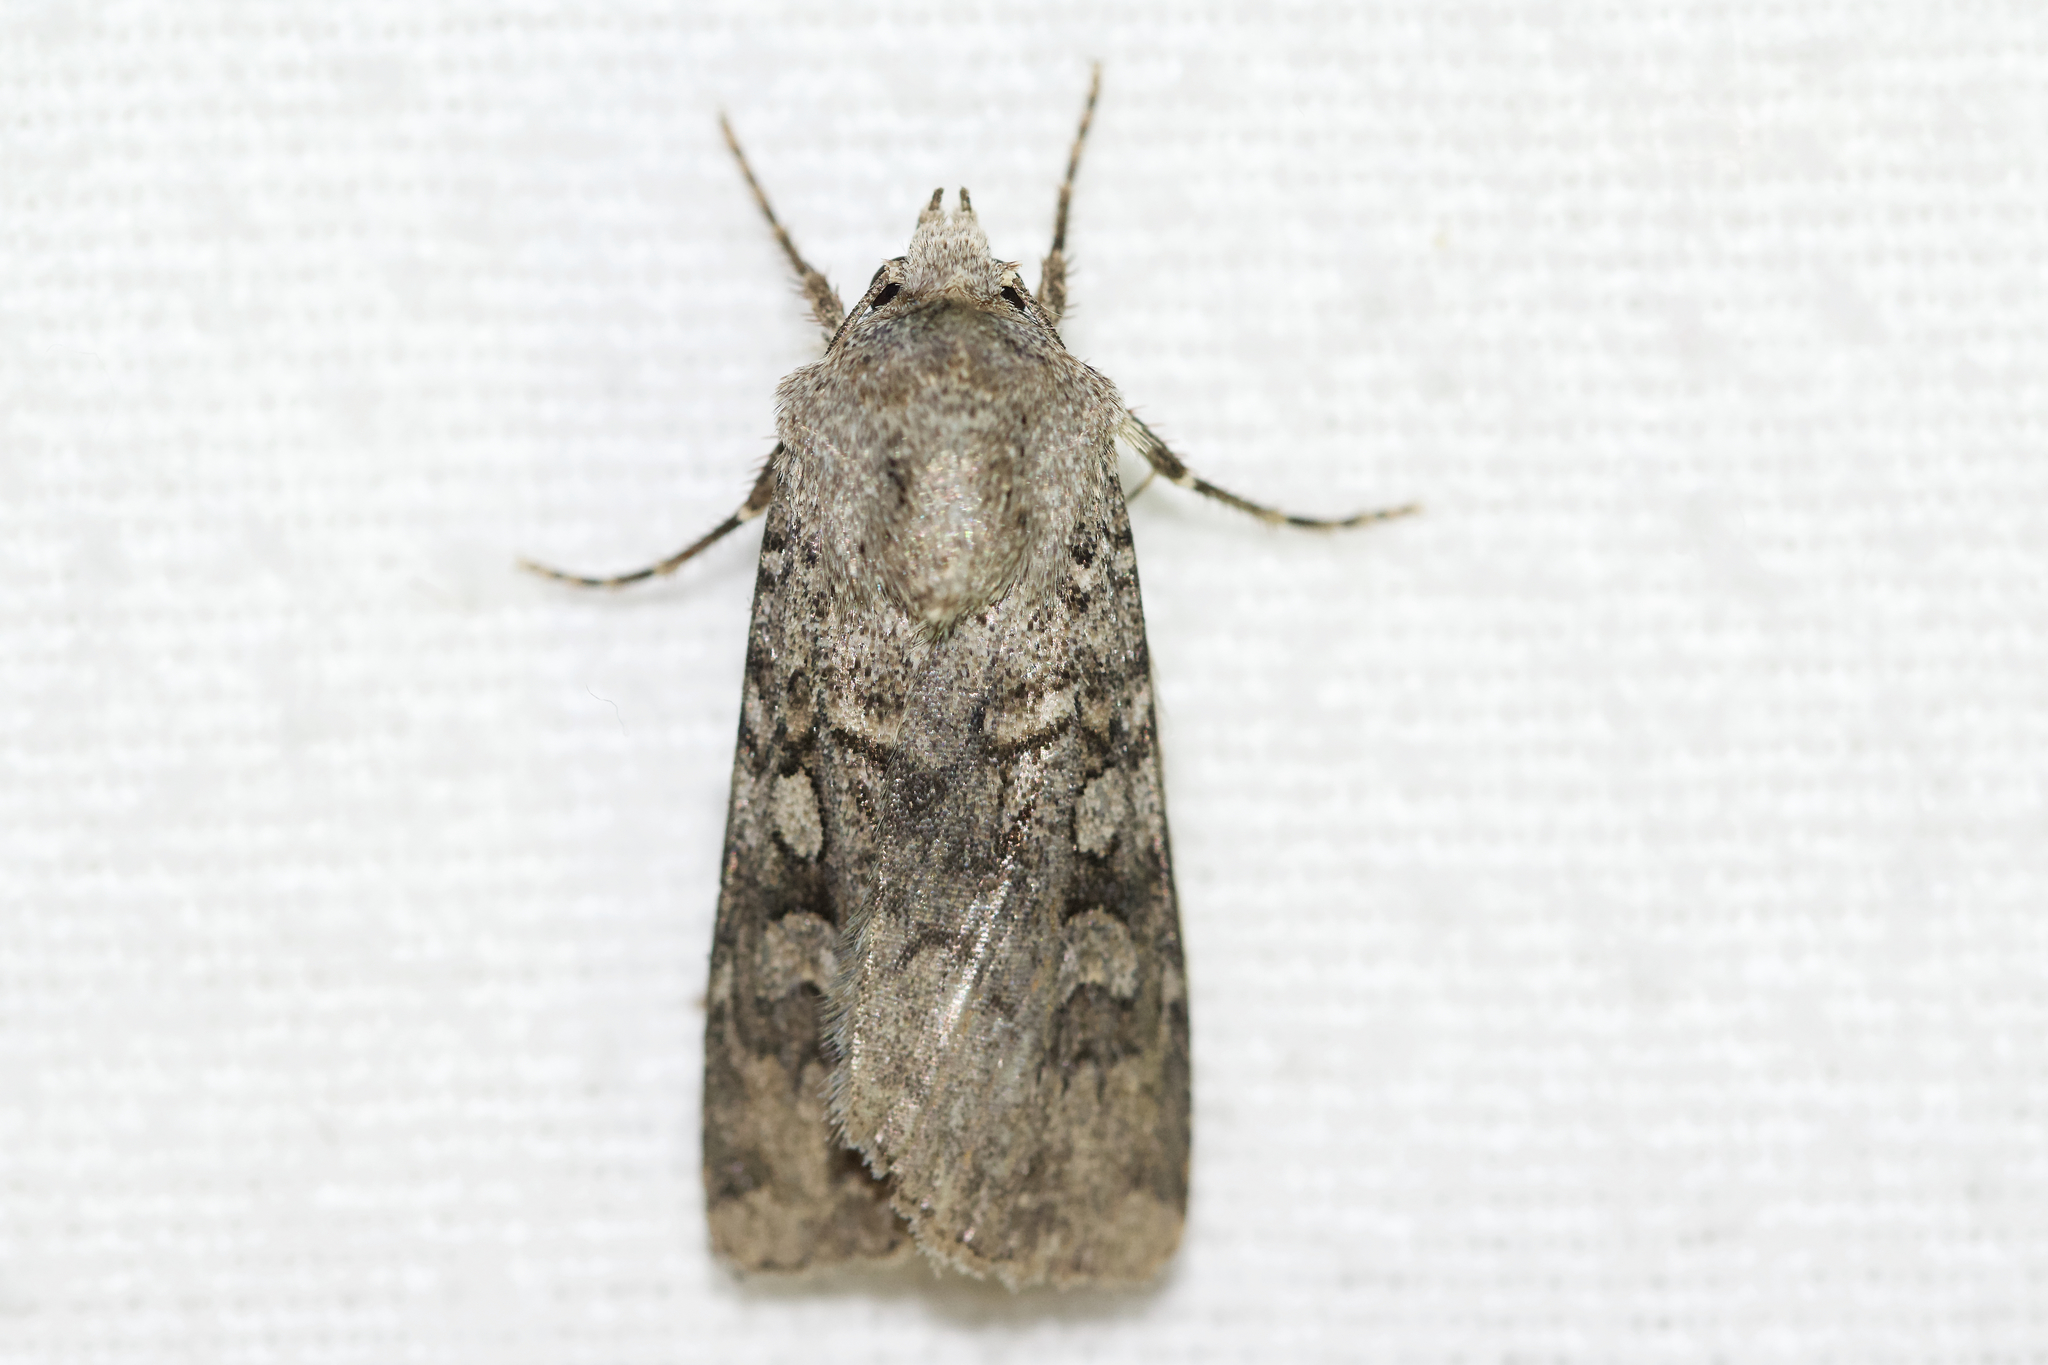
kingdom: Animalia
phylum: Arthropoda
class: Insecta
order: Lepidoptera
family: Noctuidae
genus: Euxoa
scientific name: Euxoa messoria
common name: Darksided cutworm
